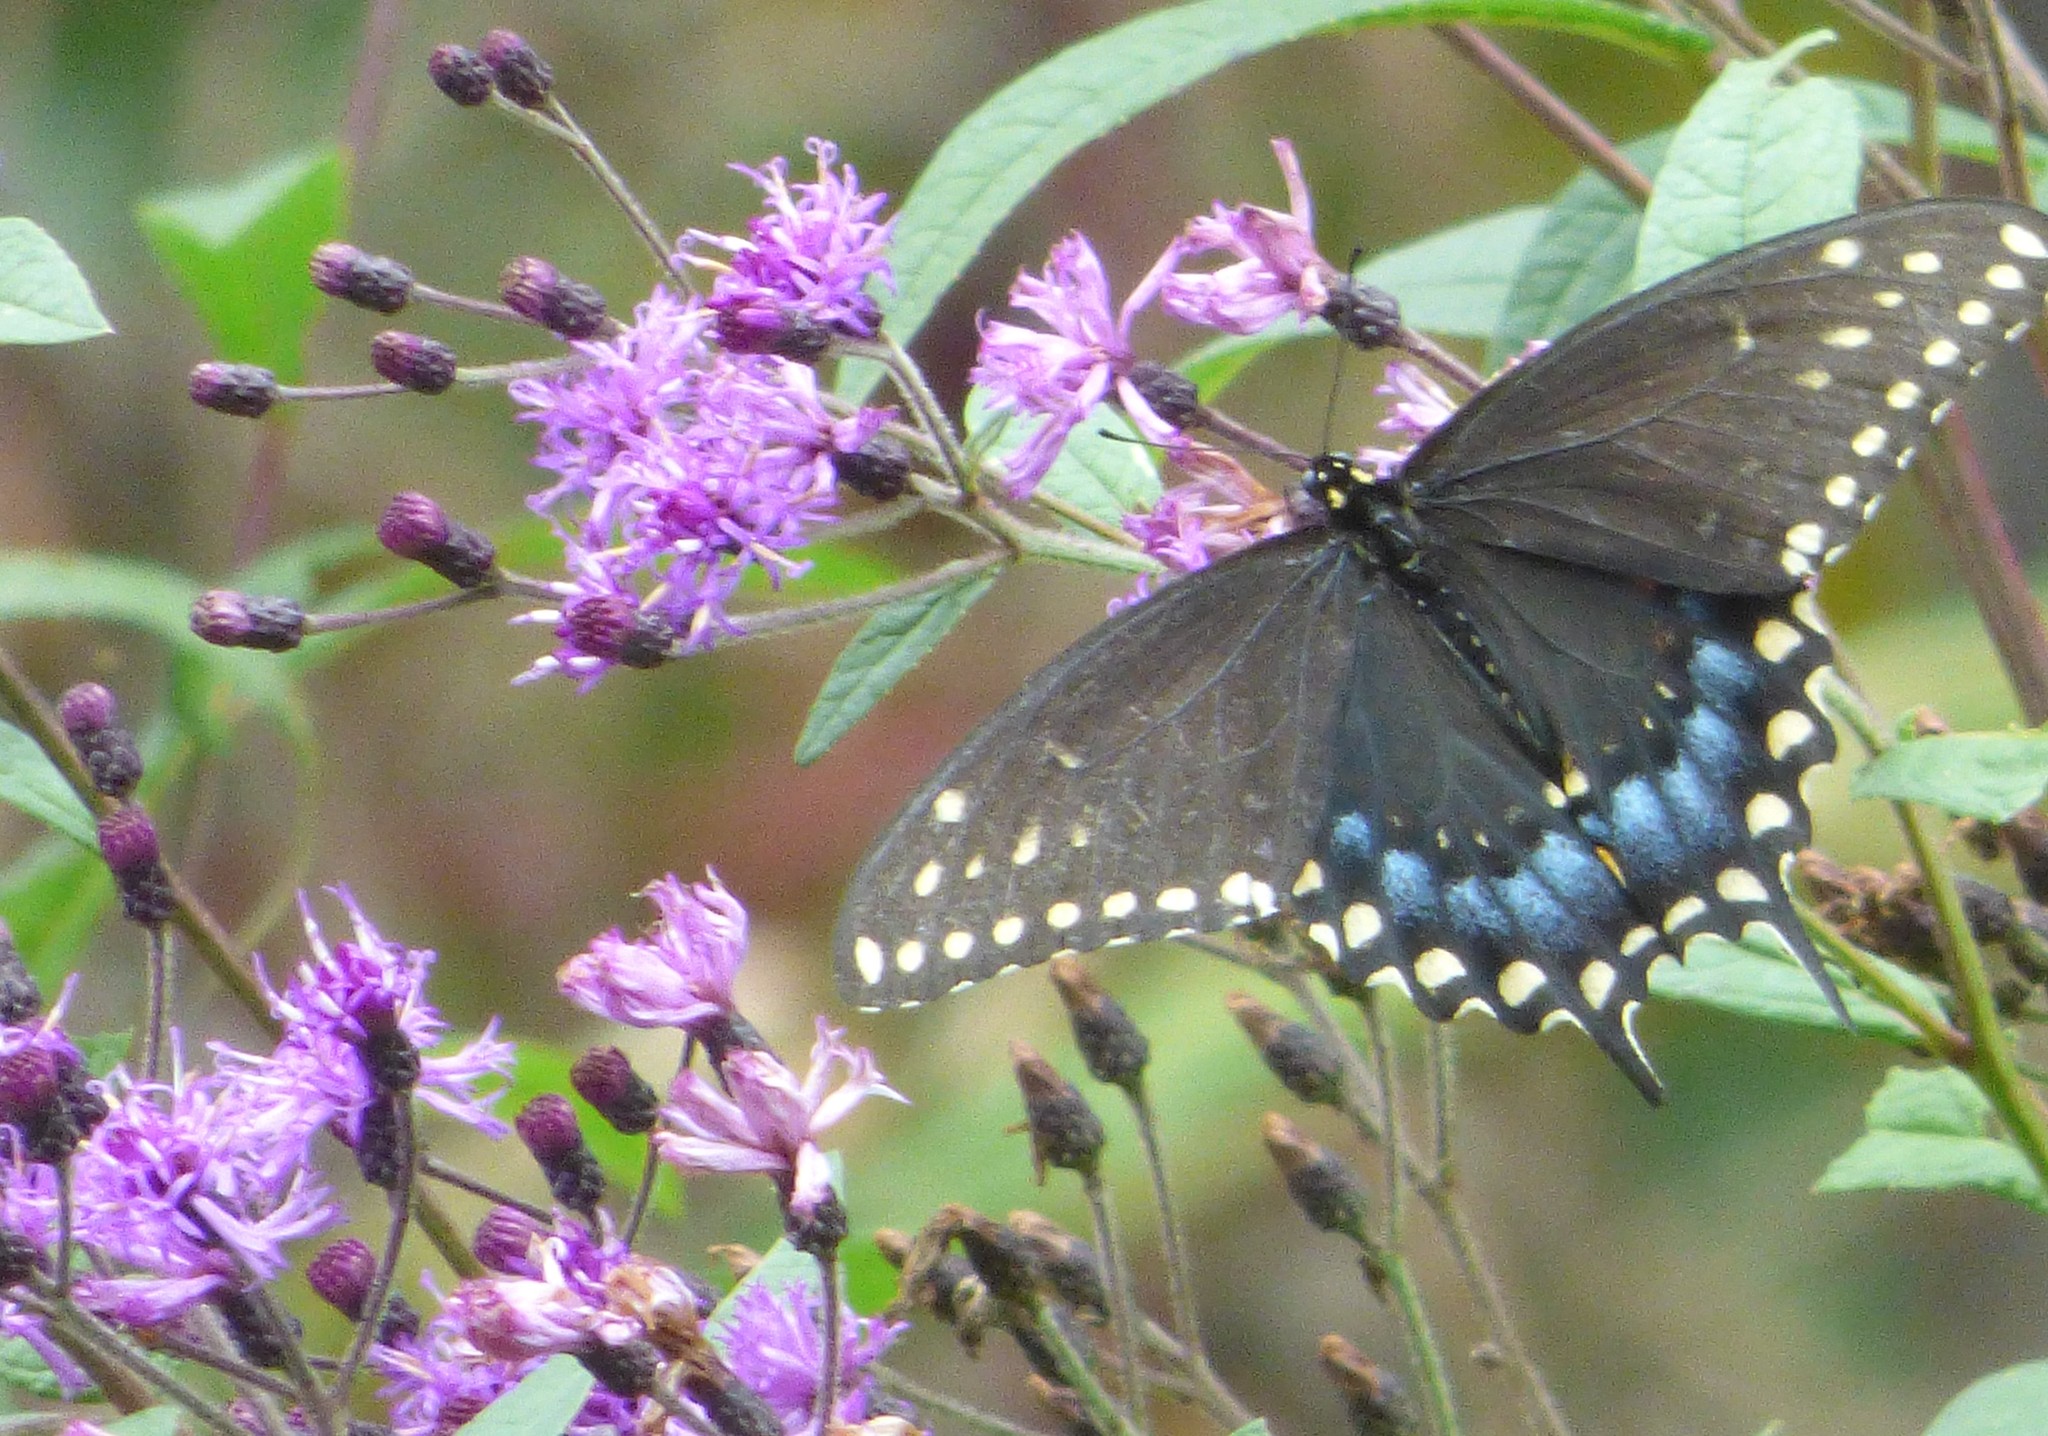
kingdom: Animalia
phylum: Arthropoda
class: Insecta
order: Lepidoptera
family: Papilionidae
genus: Papilio
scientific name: Papilio polyxenes
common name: Black swallowtail
